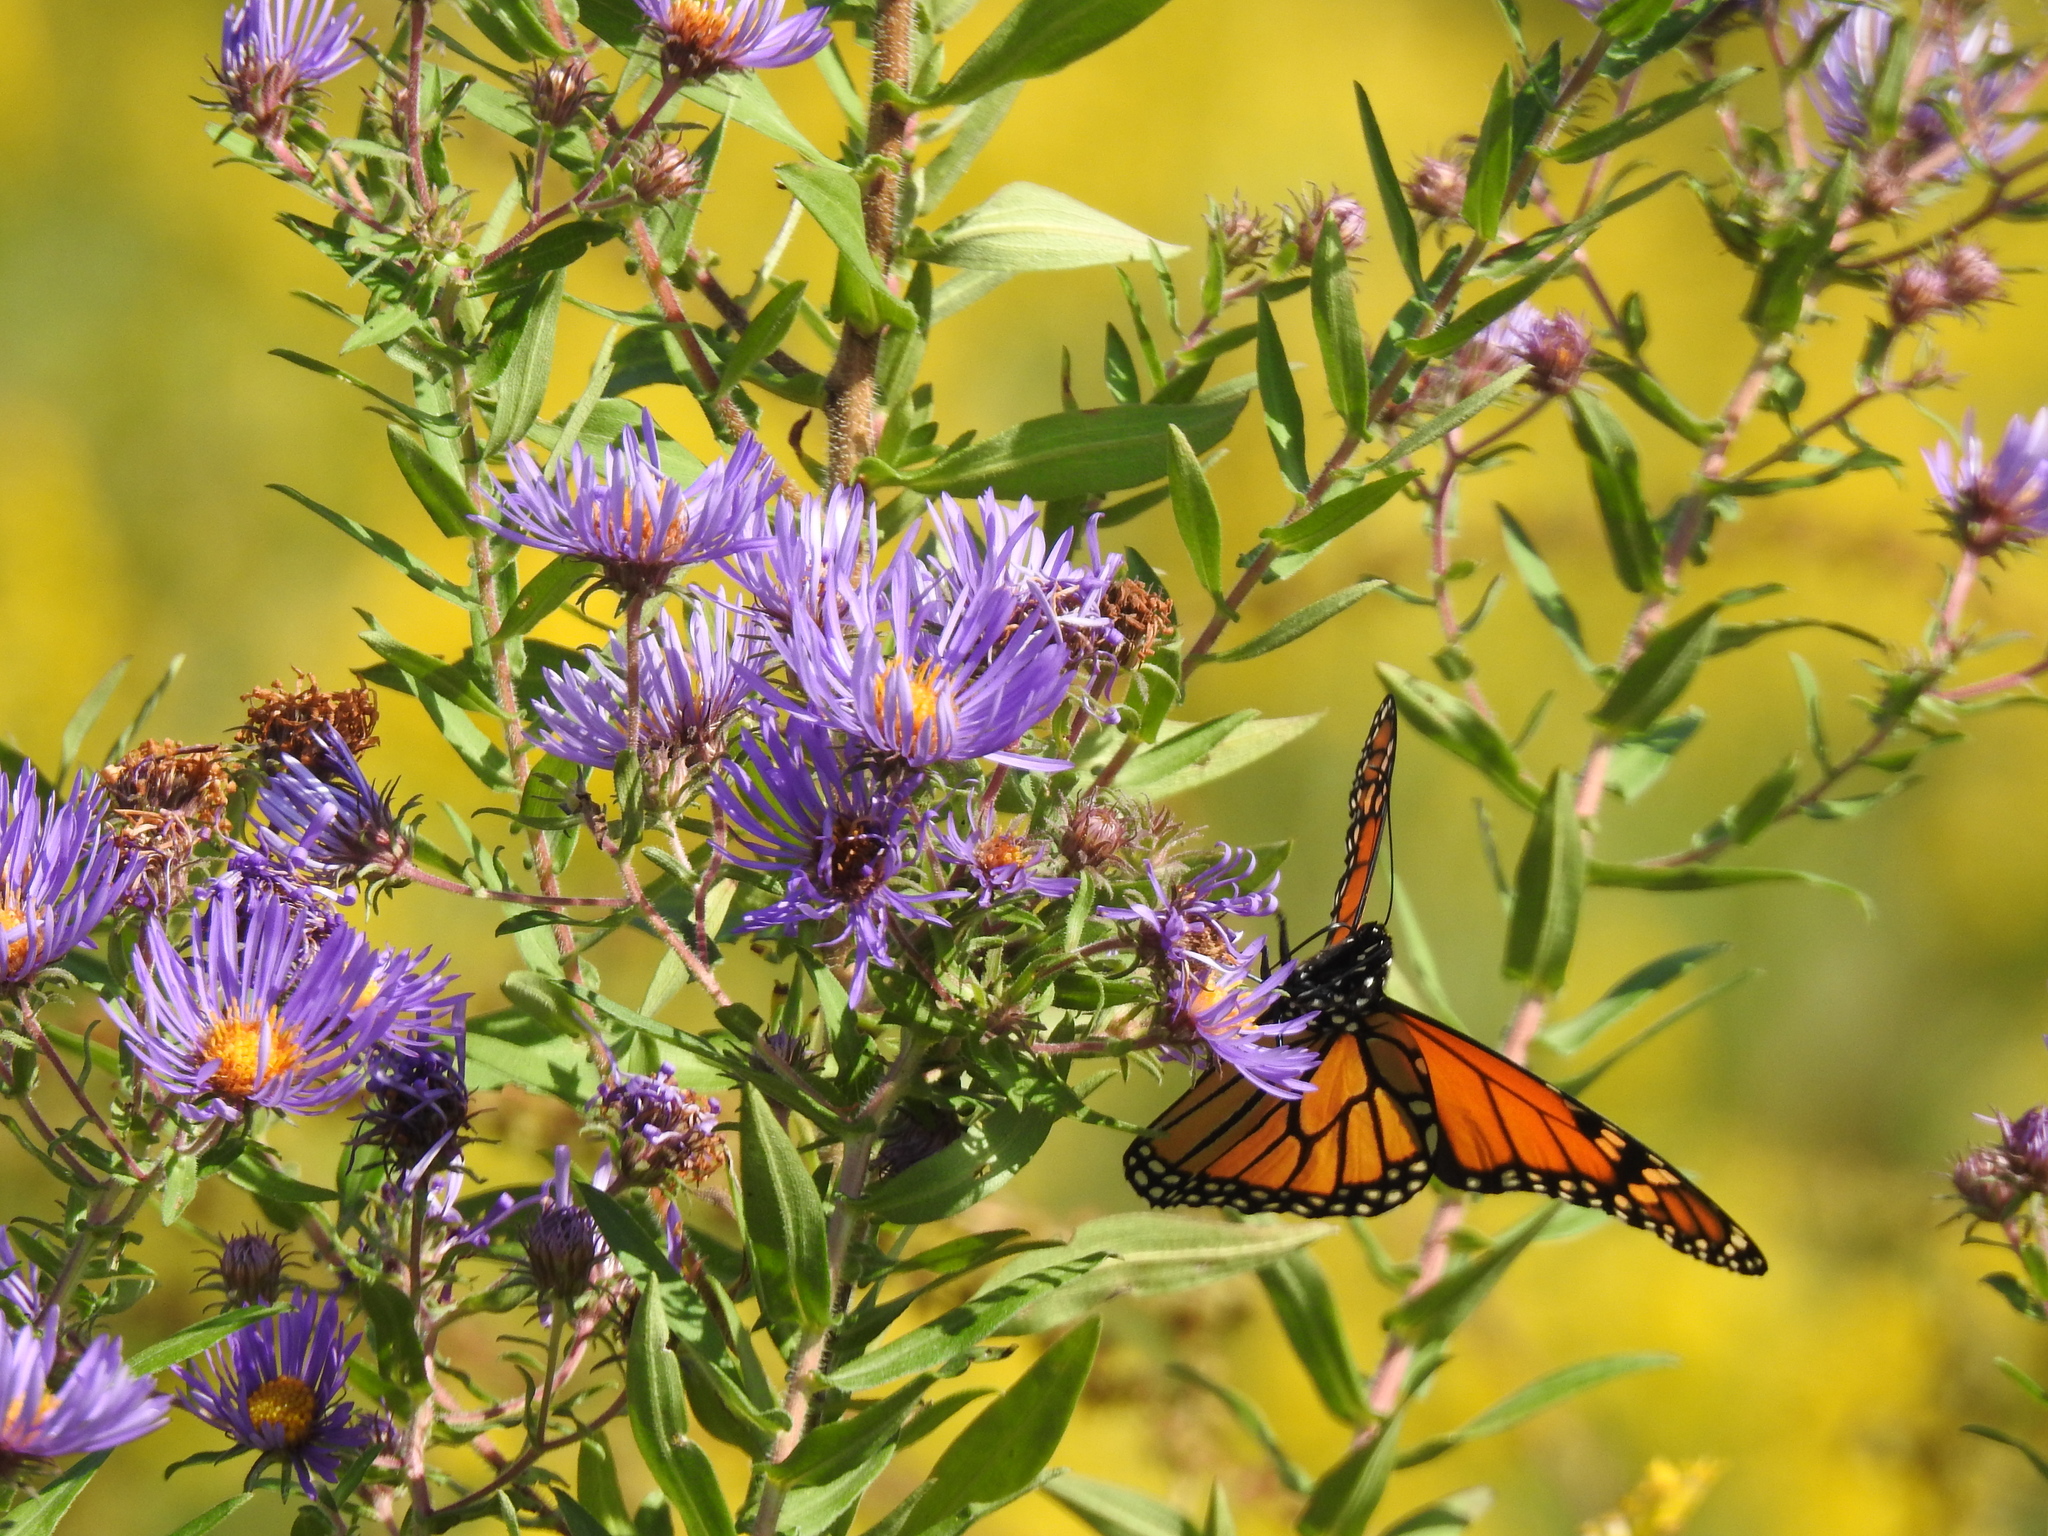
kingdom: Animalia
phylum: Arthropoda
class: Insecta
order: Lepidoptera
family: Nymphalidae
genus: Danaus
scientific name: Danaus plexippus
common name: Monarch
